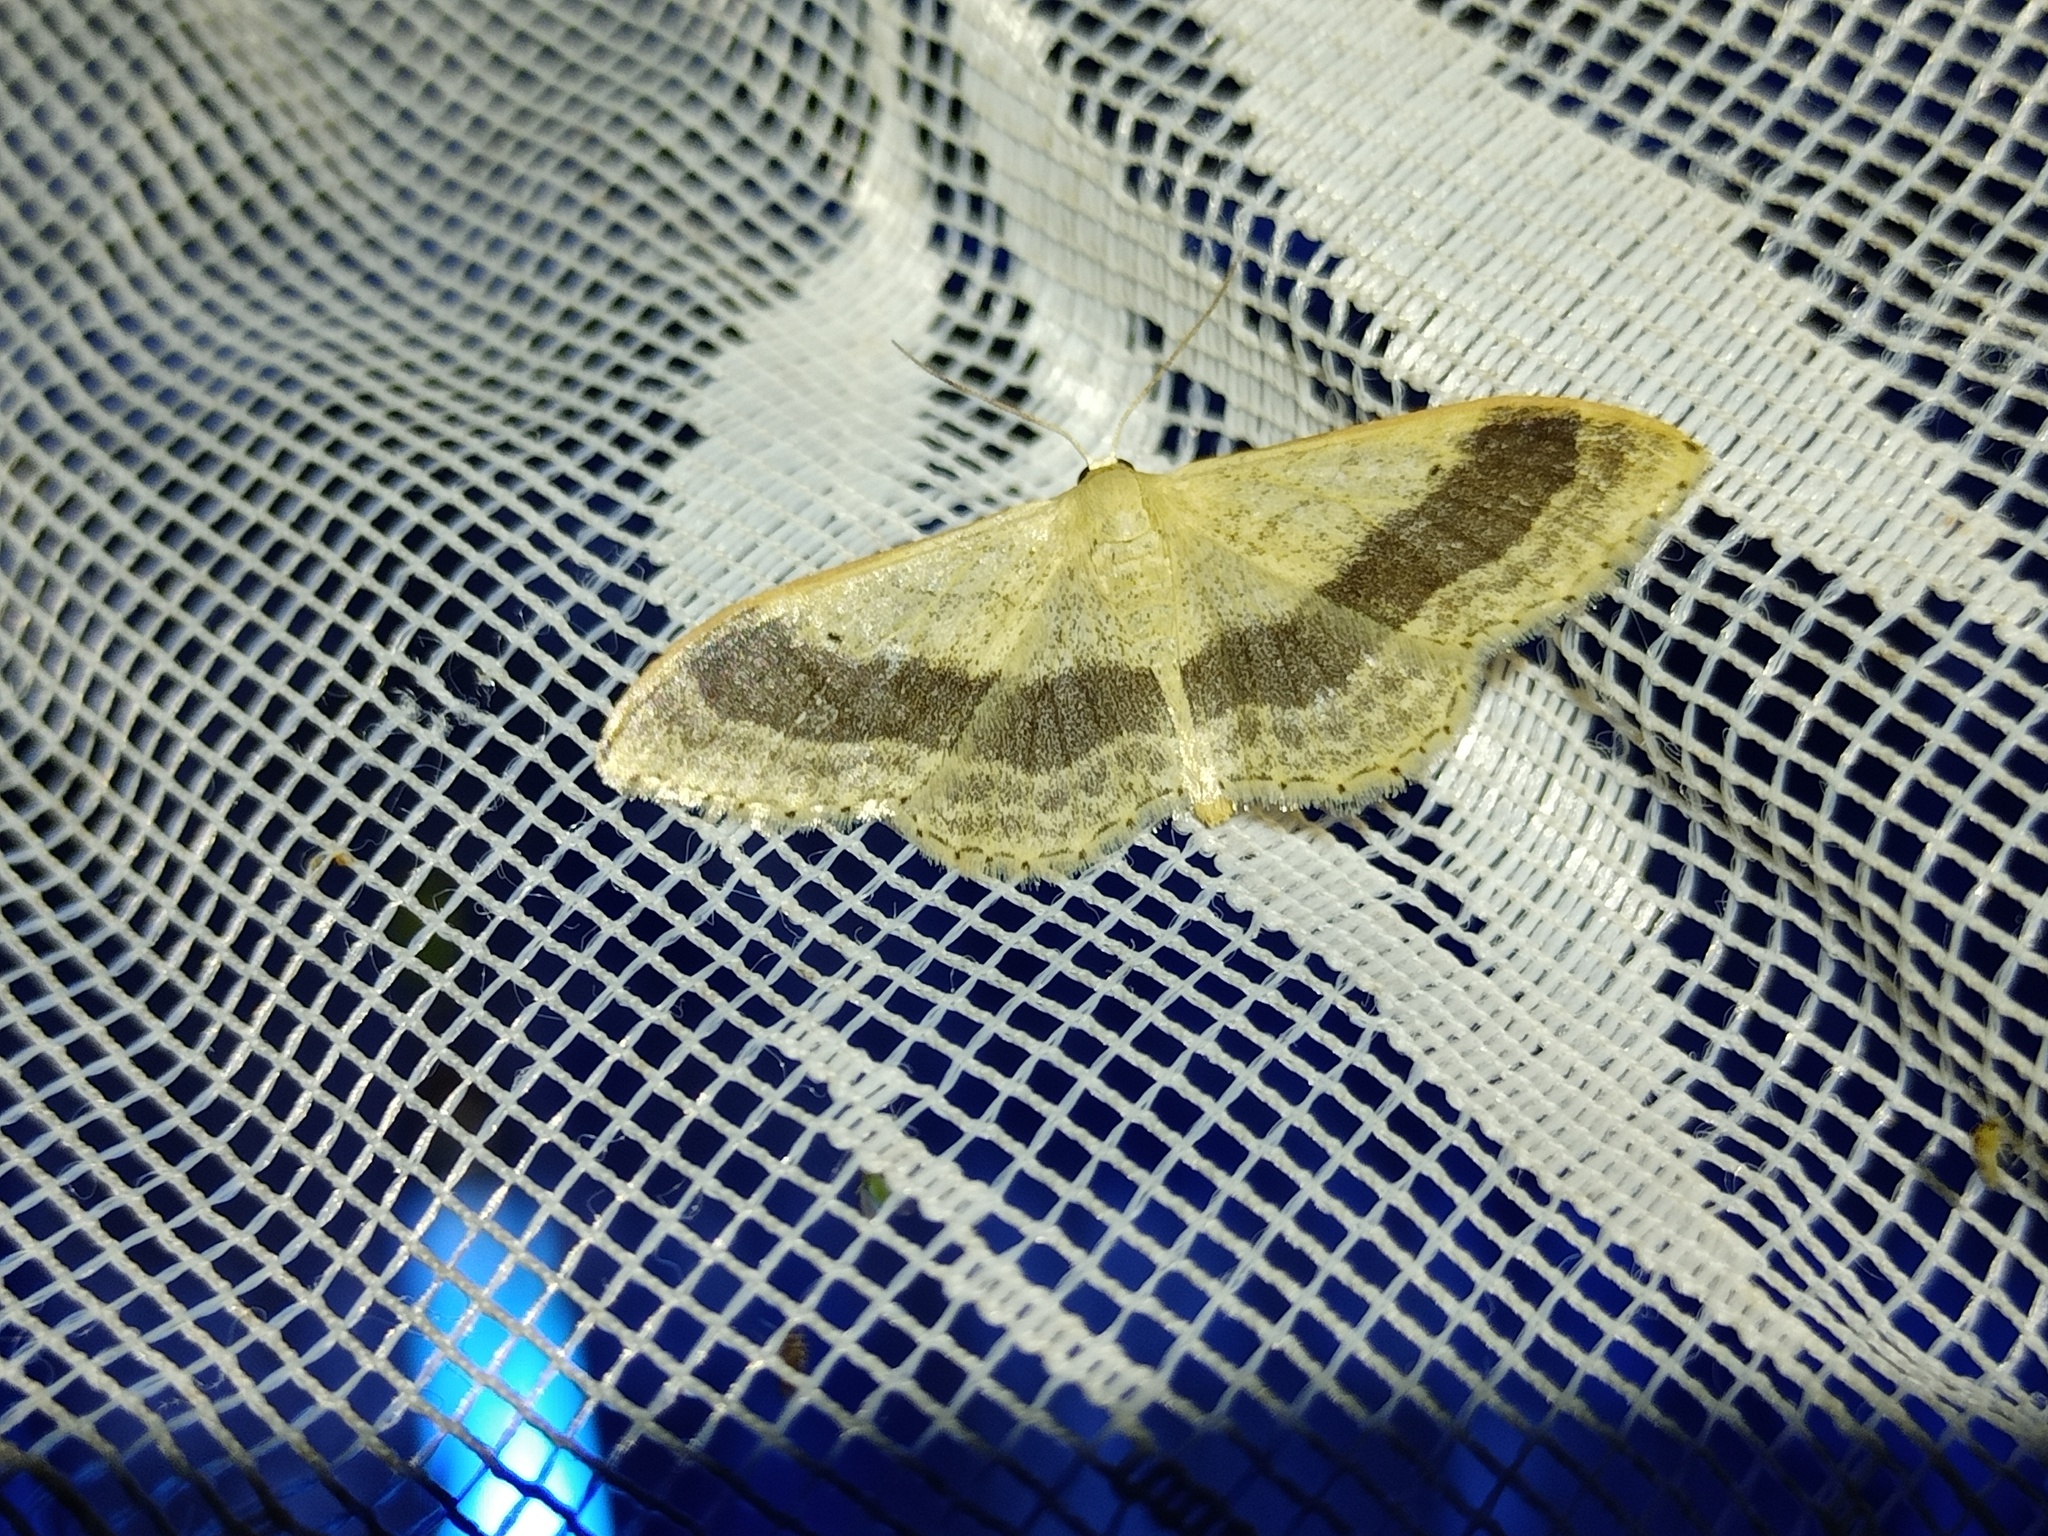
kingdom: Animalia
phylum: Arthropoda
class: Insecta
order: Lepidoptera
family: Geometridae
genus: Idaea
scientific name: Idaea aversata
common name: Riband wave
